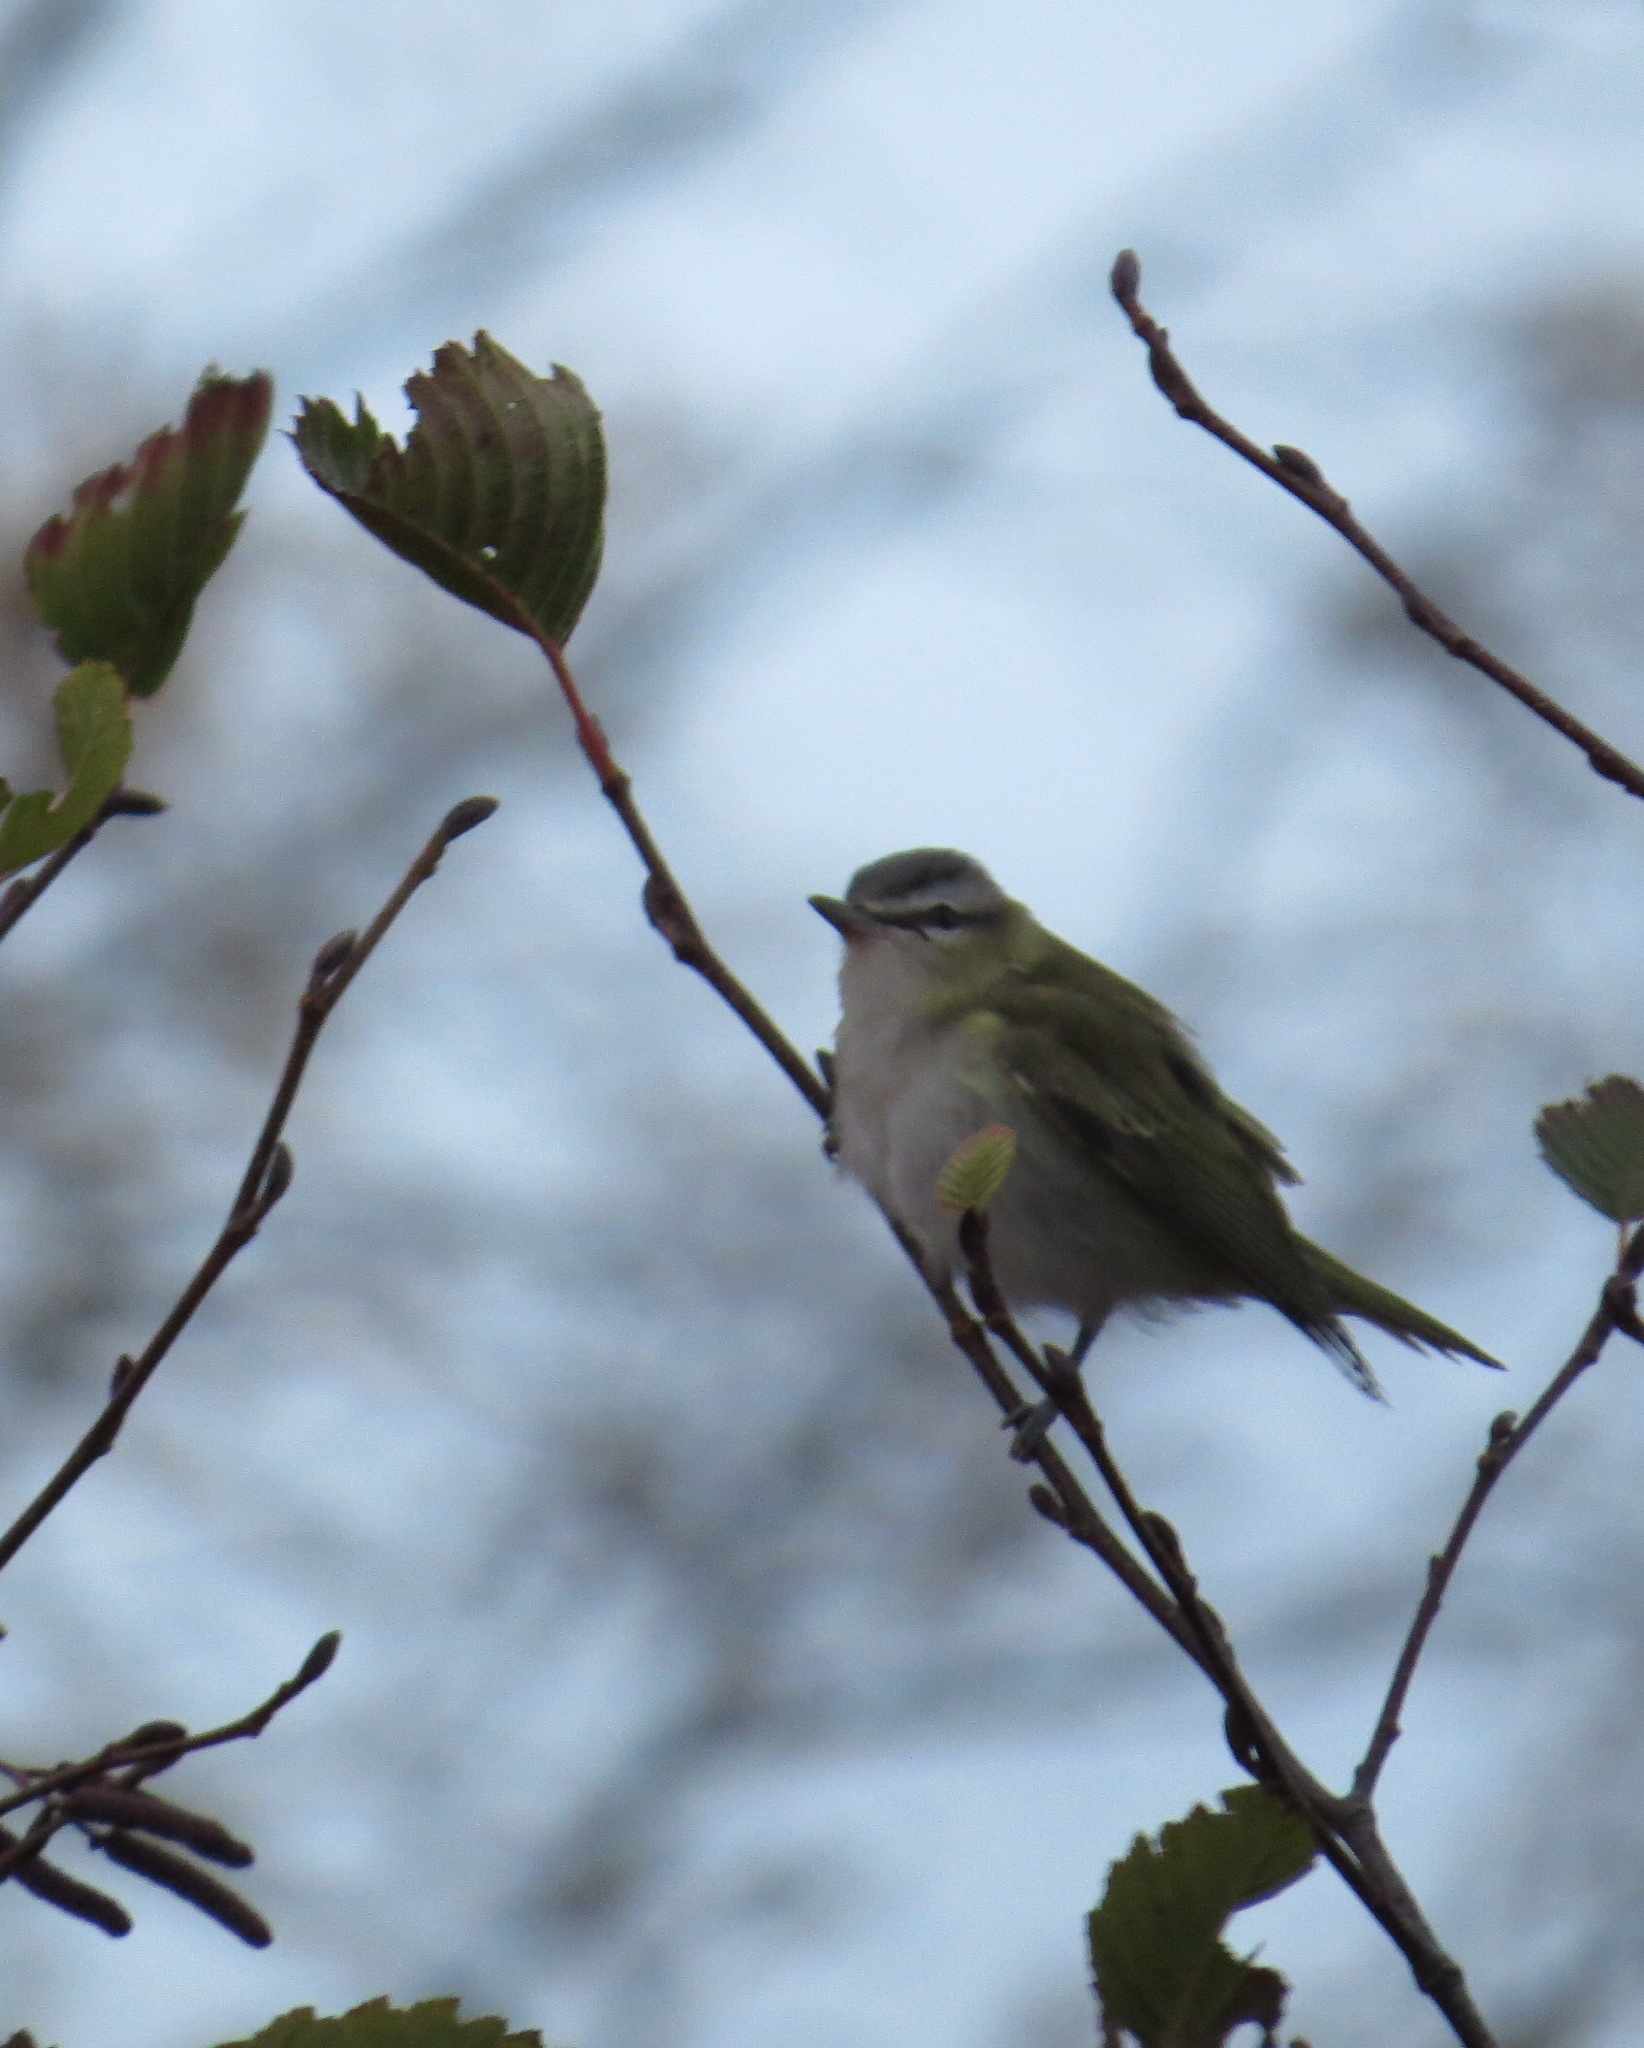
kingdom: Animalia
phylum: Chordata
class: Aves
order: Passeriformes
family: Vireonidae
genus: Vireo
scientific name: Vireo olivaceus
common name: Red-eyed vireo
